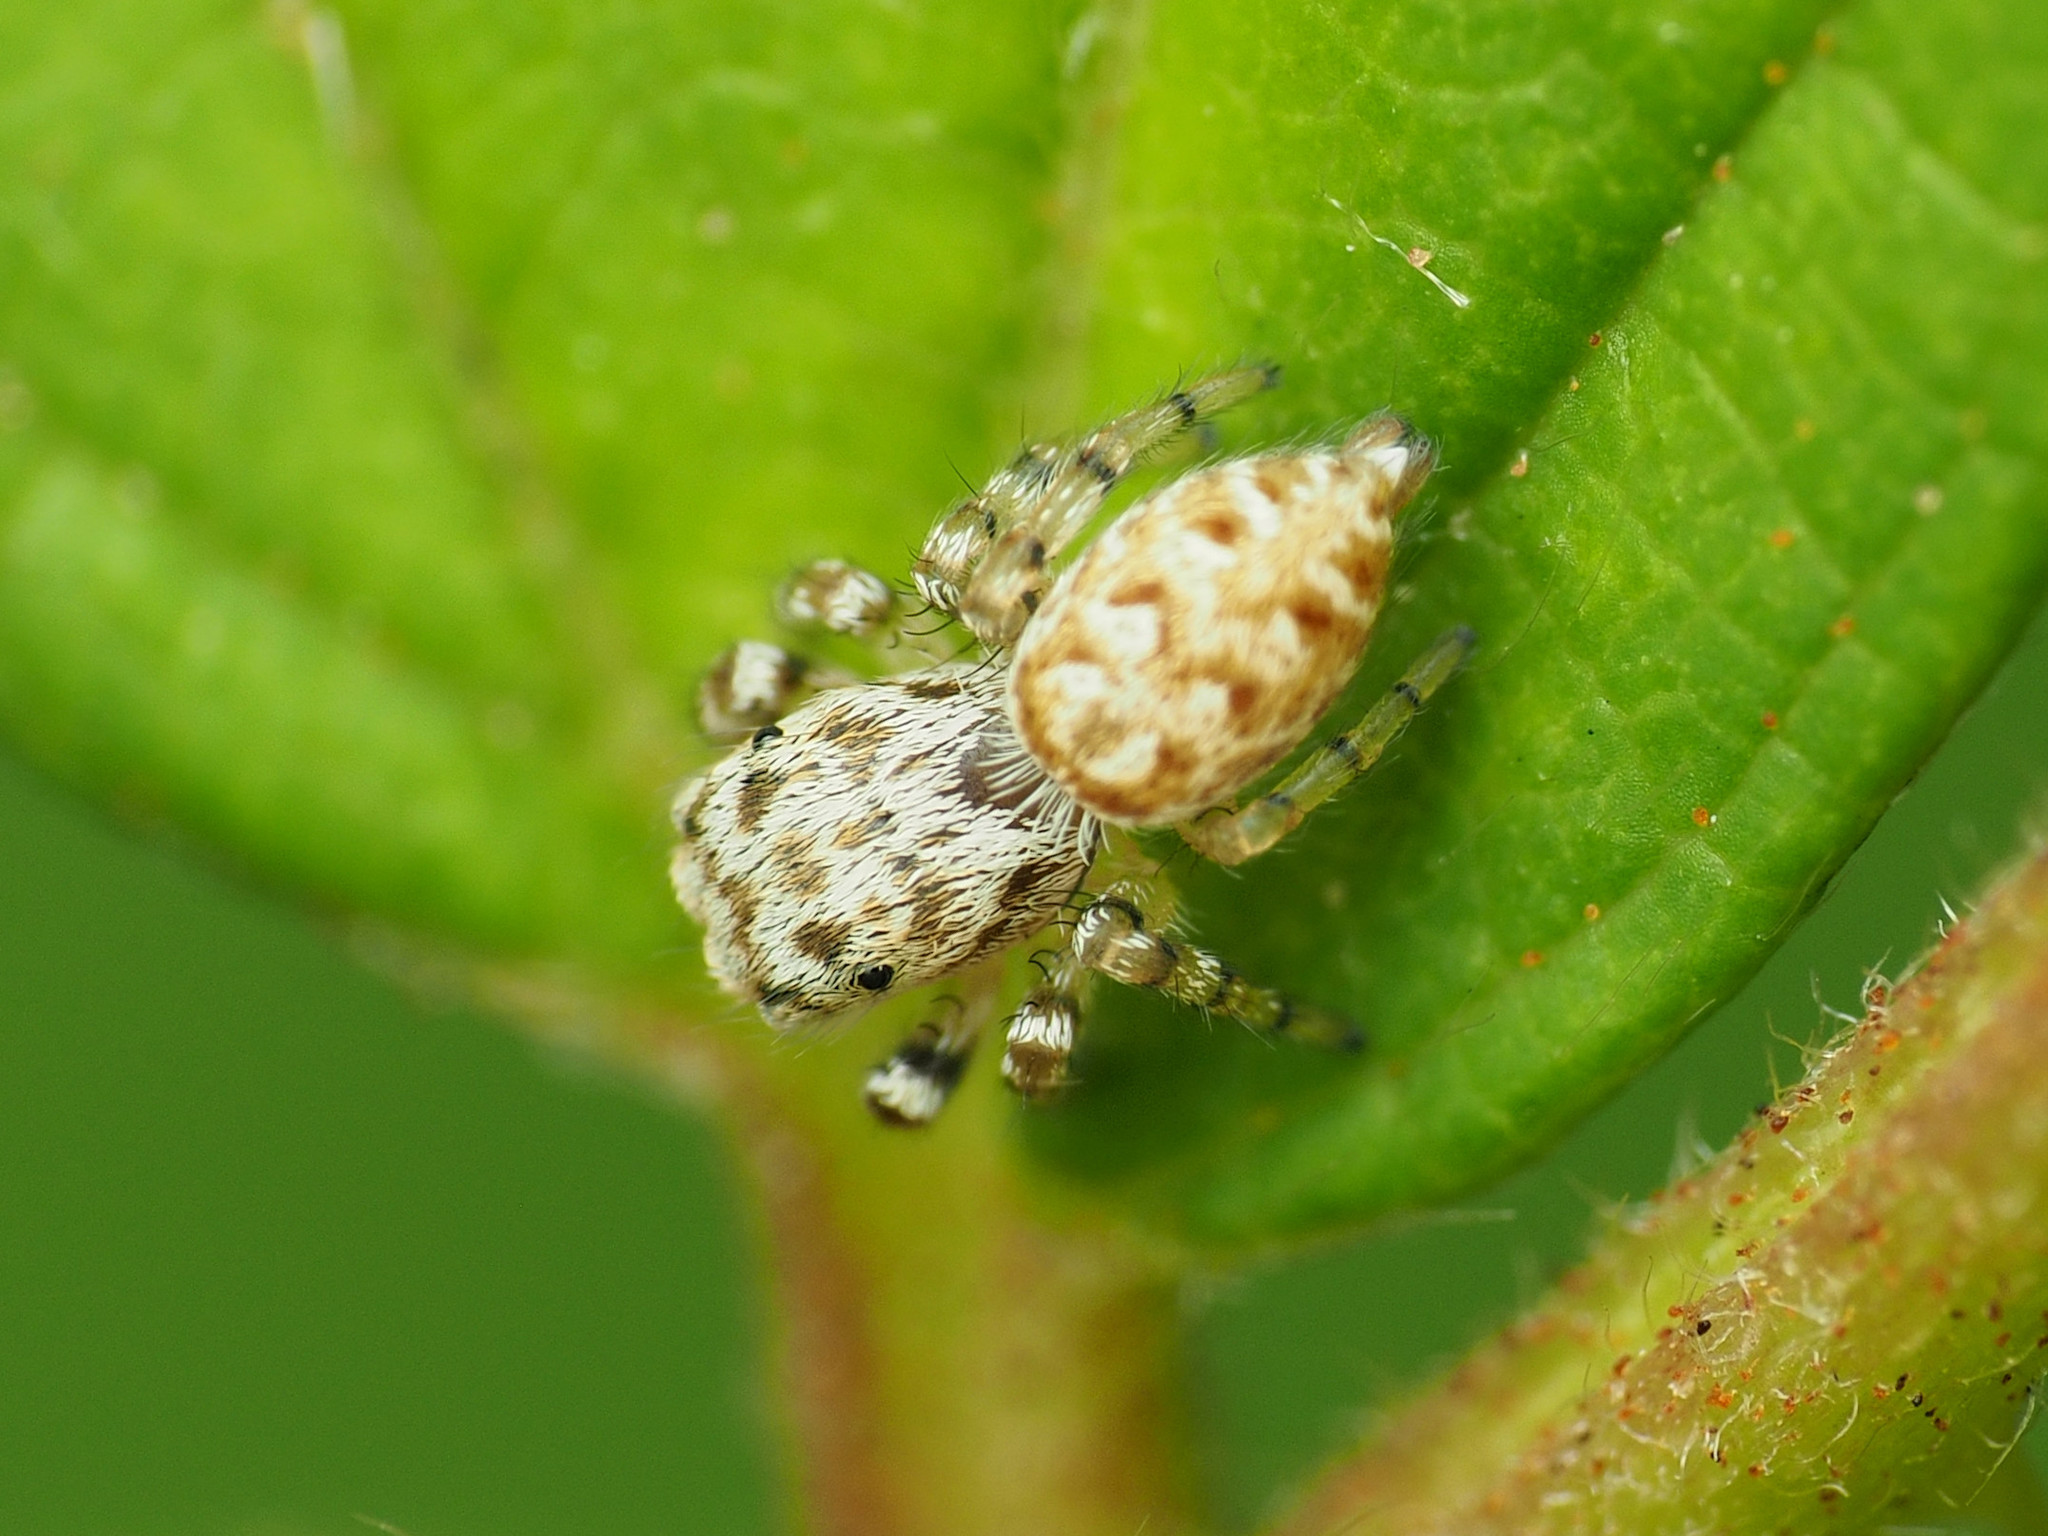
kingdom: Animalia
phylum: Arthropoda
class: Arachnida
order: Araneae
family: Salticidae
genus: Pelegrina
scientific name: Pelegrina galathea
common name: Jumping spiders
